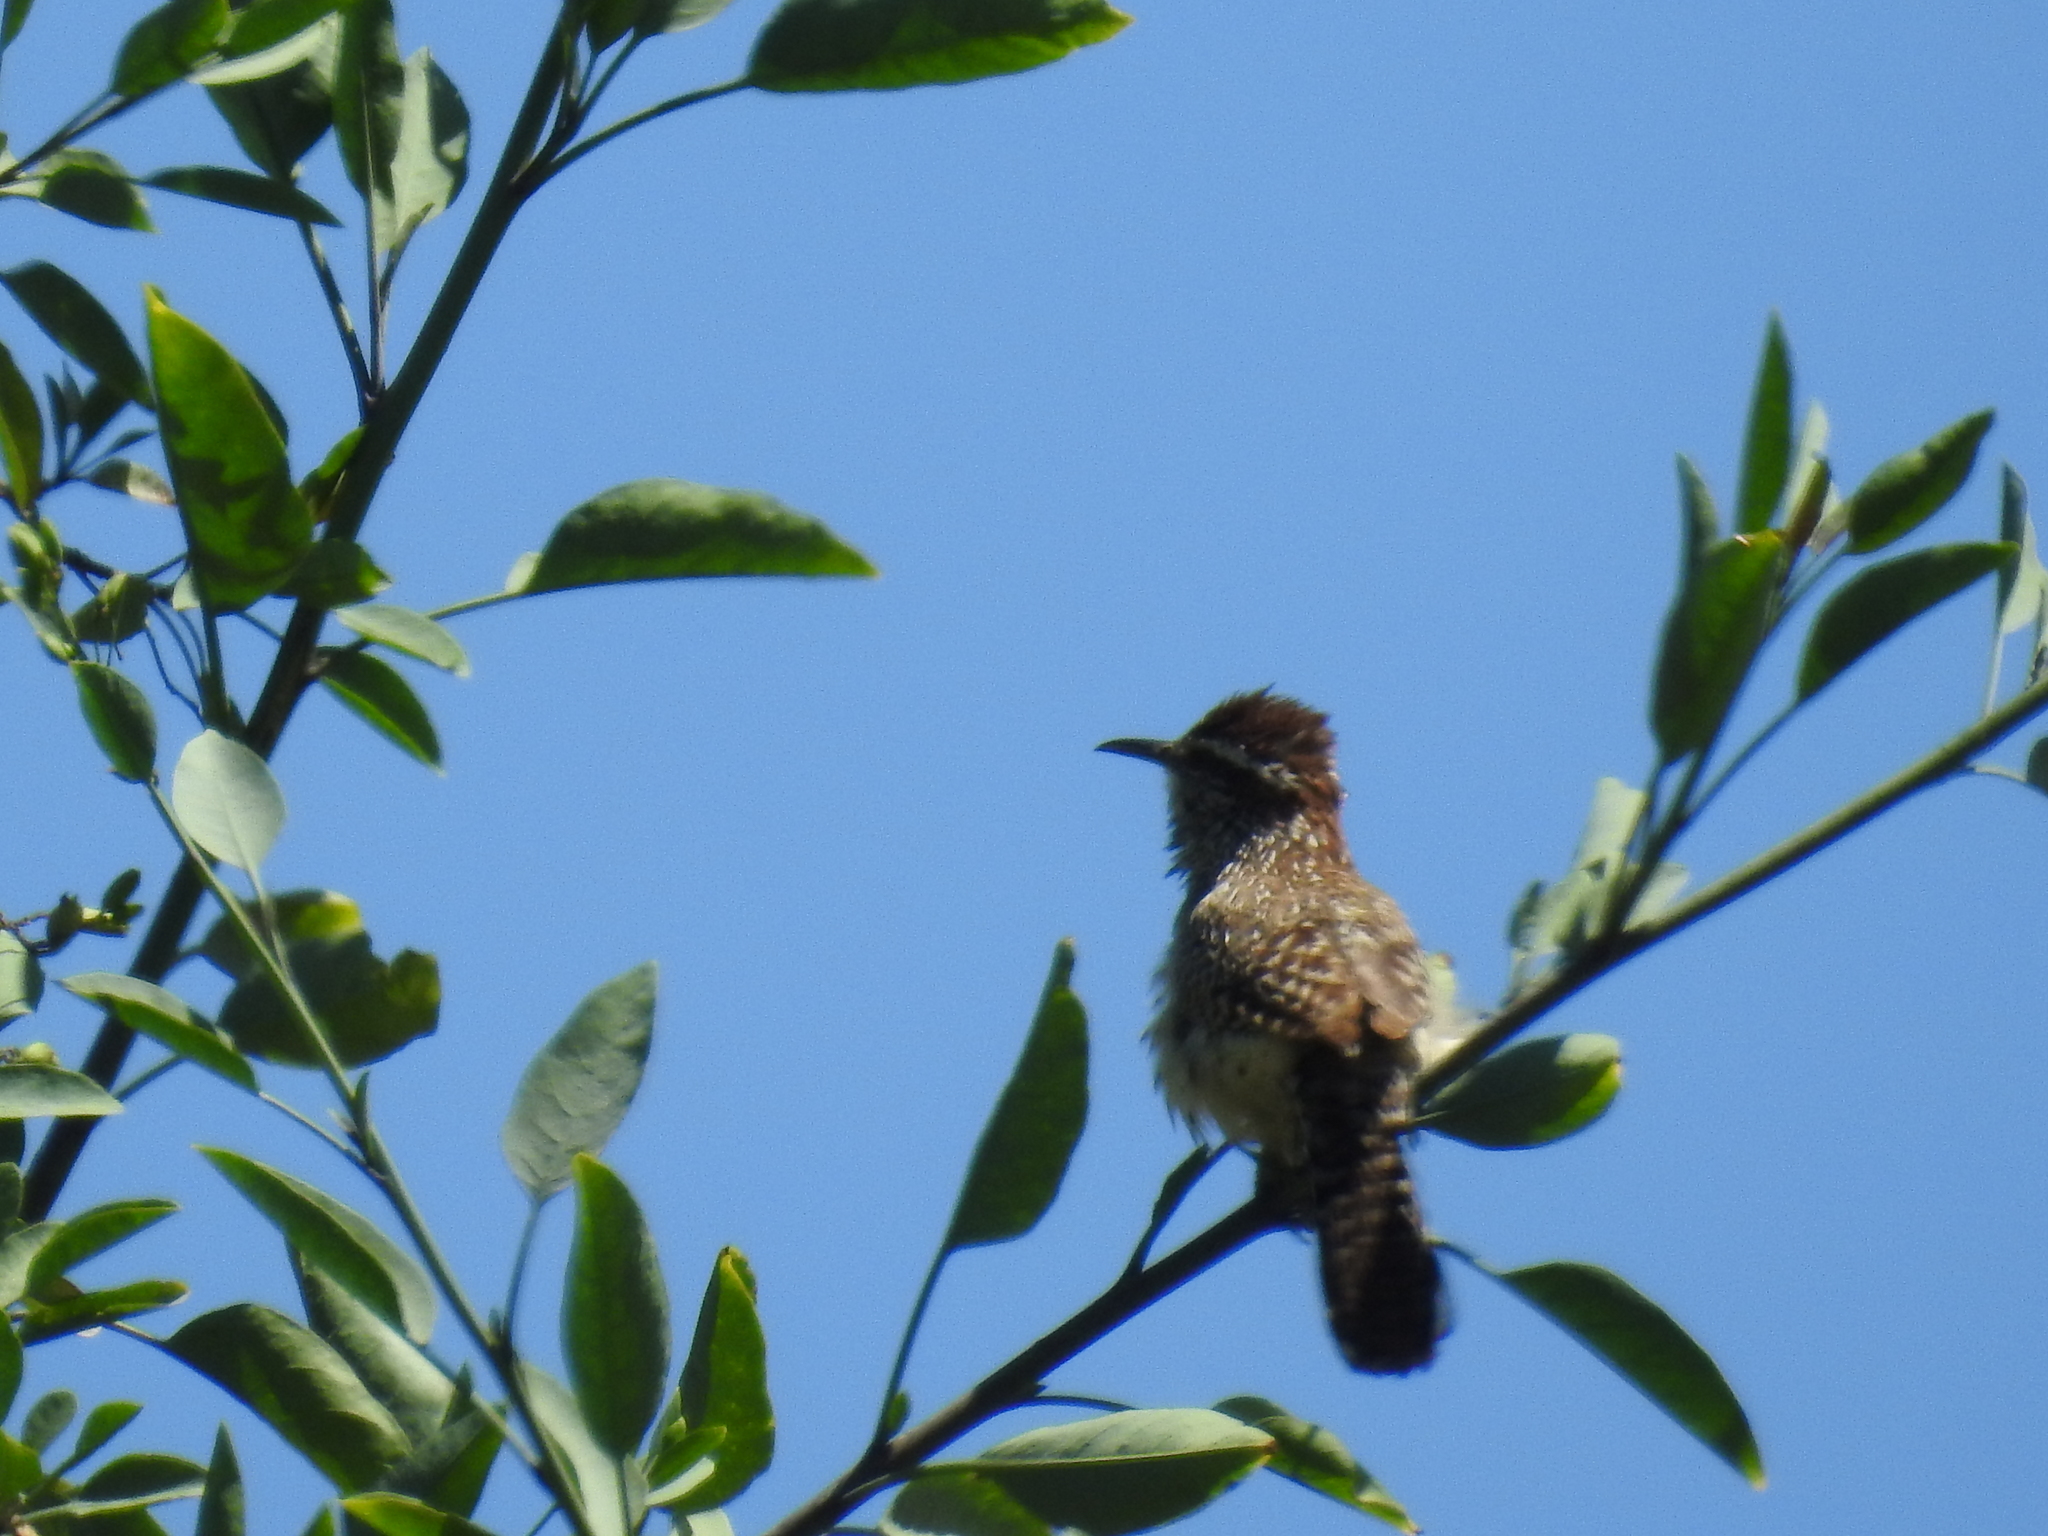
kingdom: Animalia
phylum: Chordata
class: Aves
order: Passeriformes
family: Troglodytidae
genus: Campylorhynchus
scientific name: Campylorhynchus brunneicapillus
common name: Cactus wren
